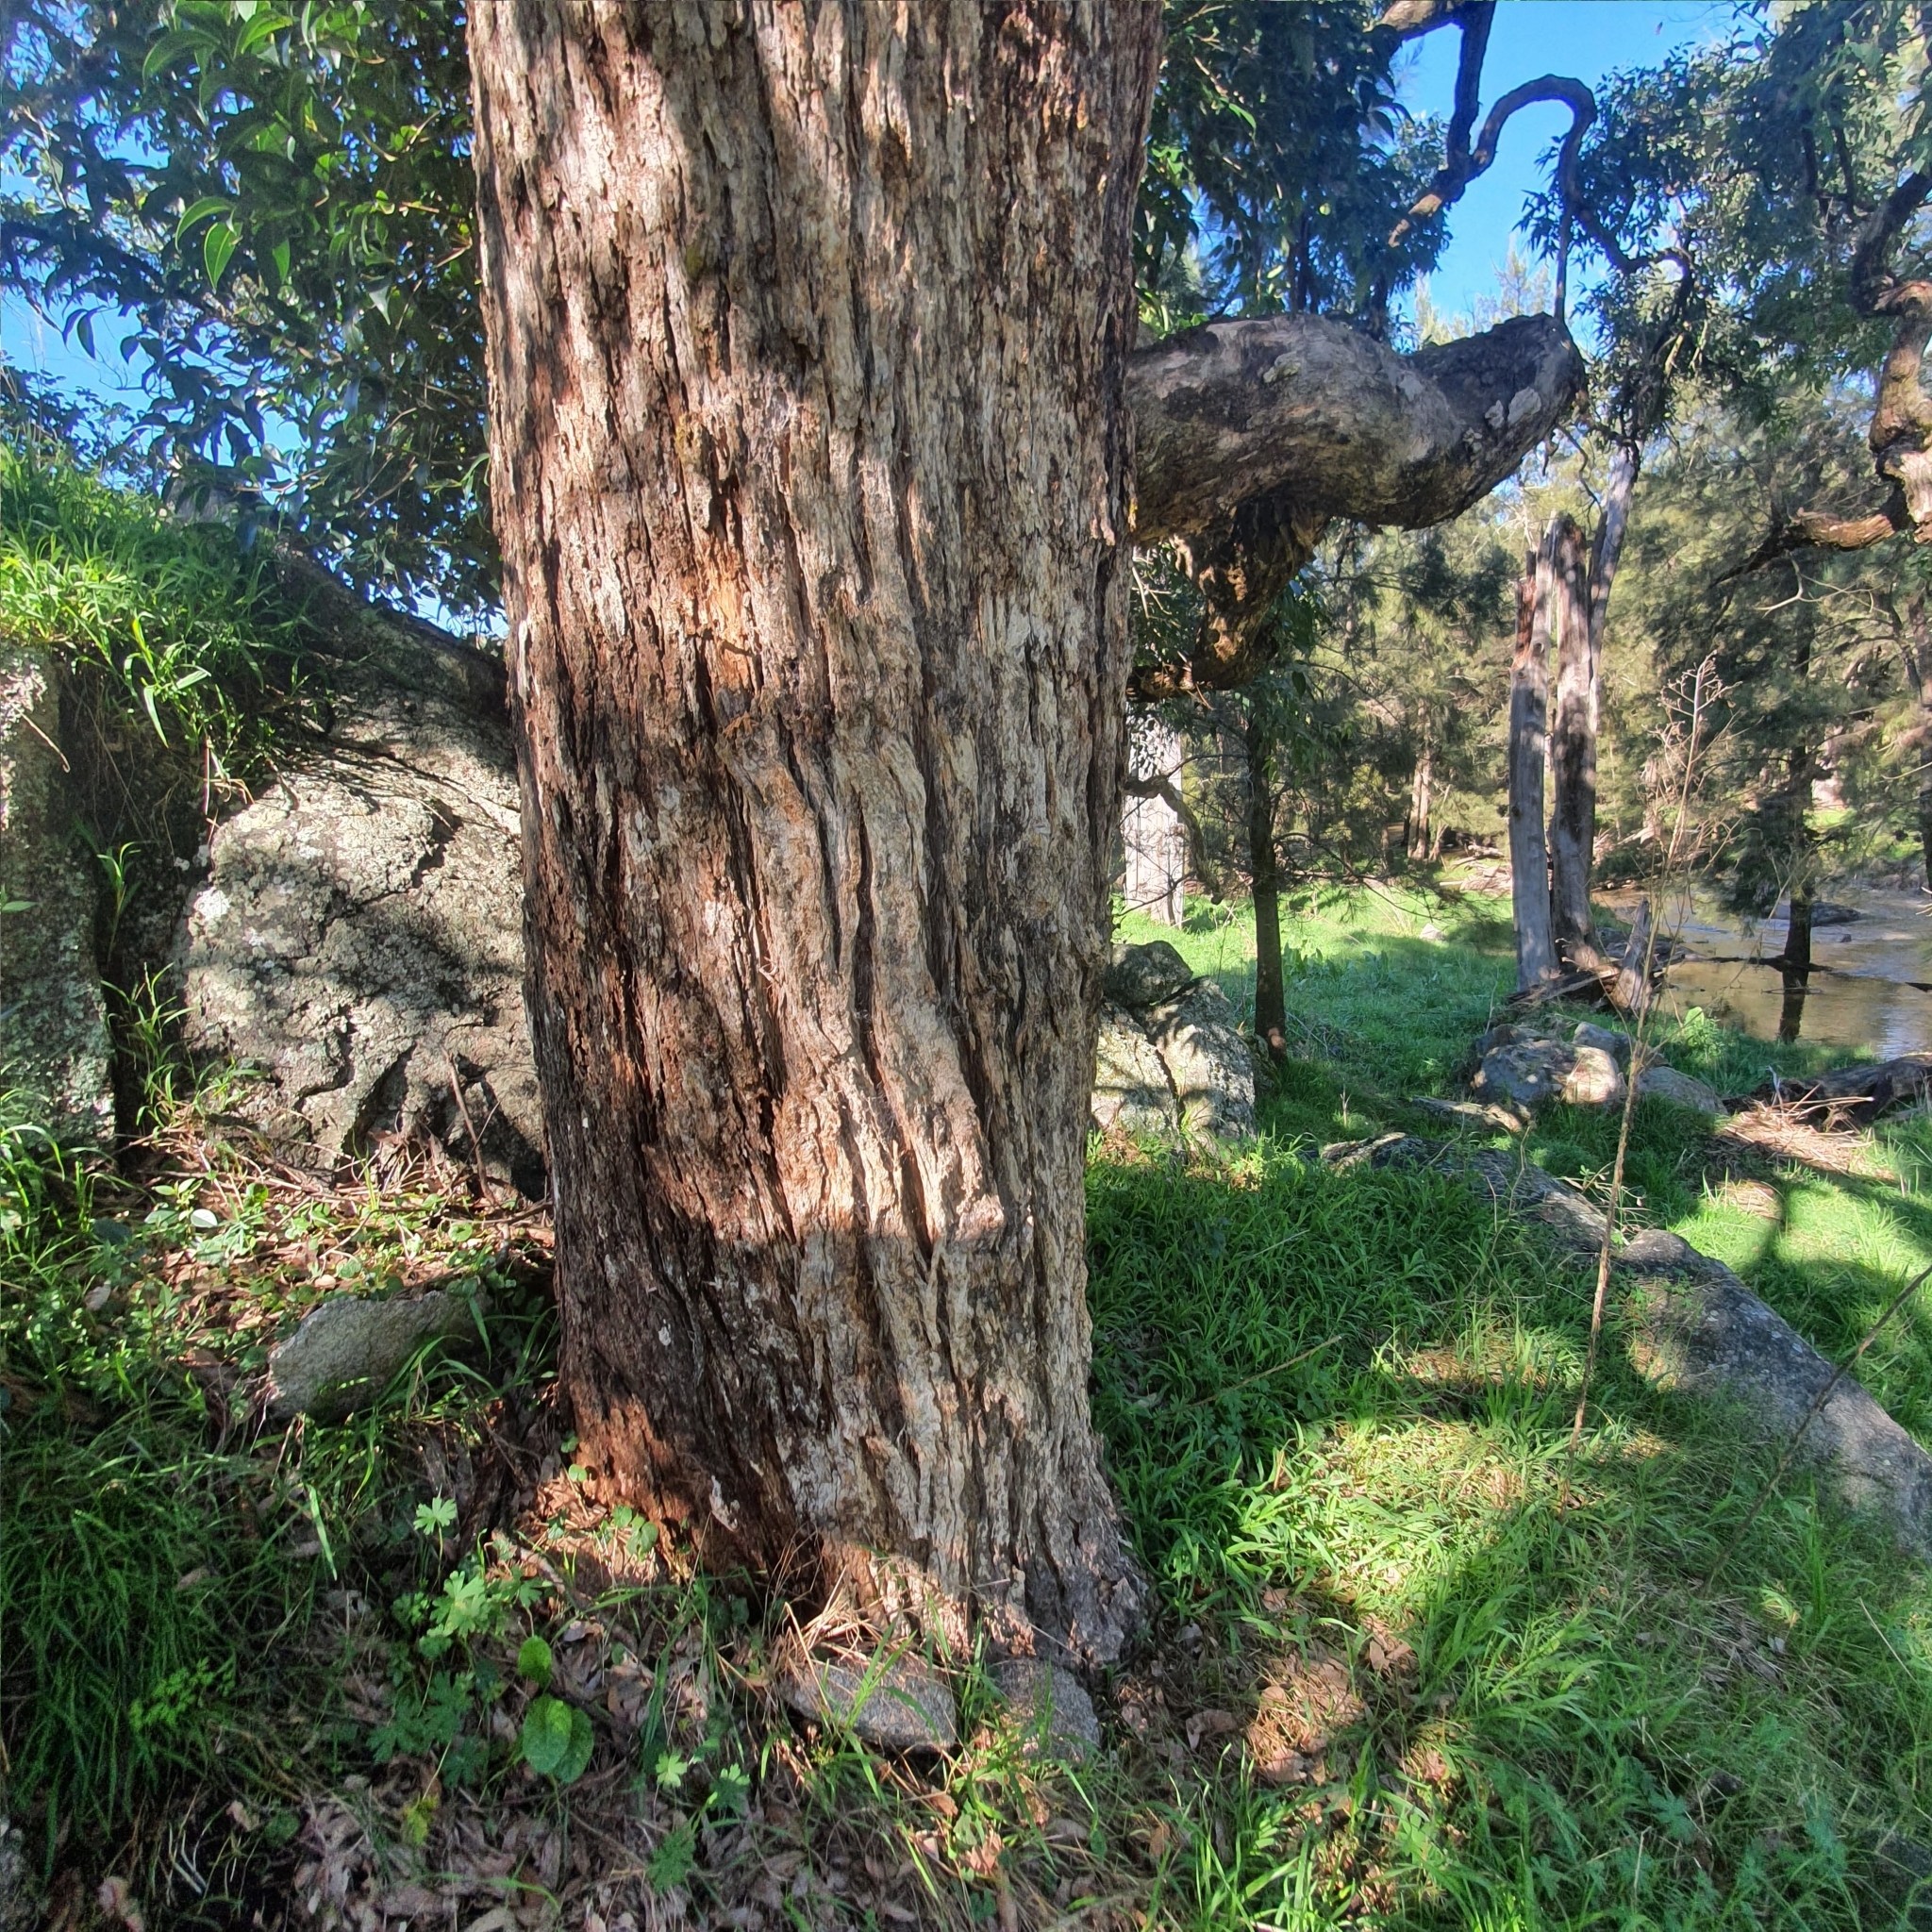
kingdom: Plantae
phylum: Tracheophyta
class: Magnoliopsida
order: Myrtales
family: Myrtaceae
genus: Angophora
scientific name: Angophora floribunda
